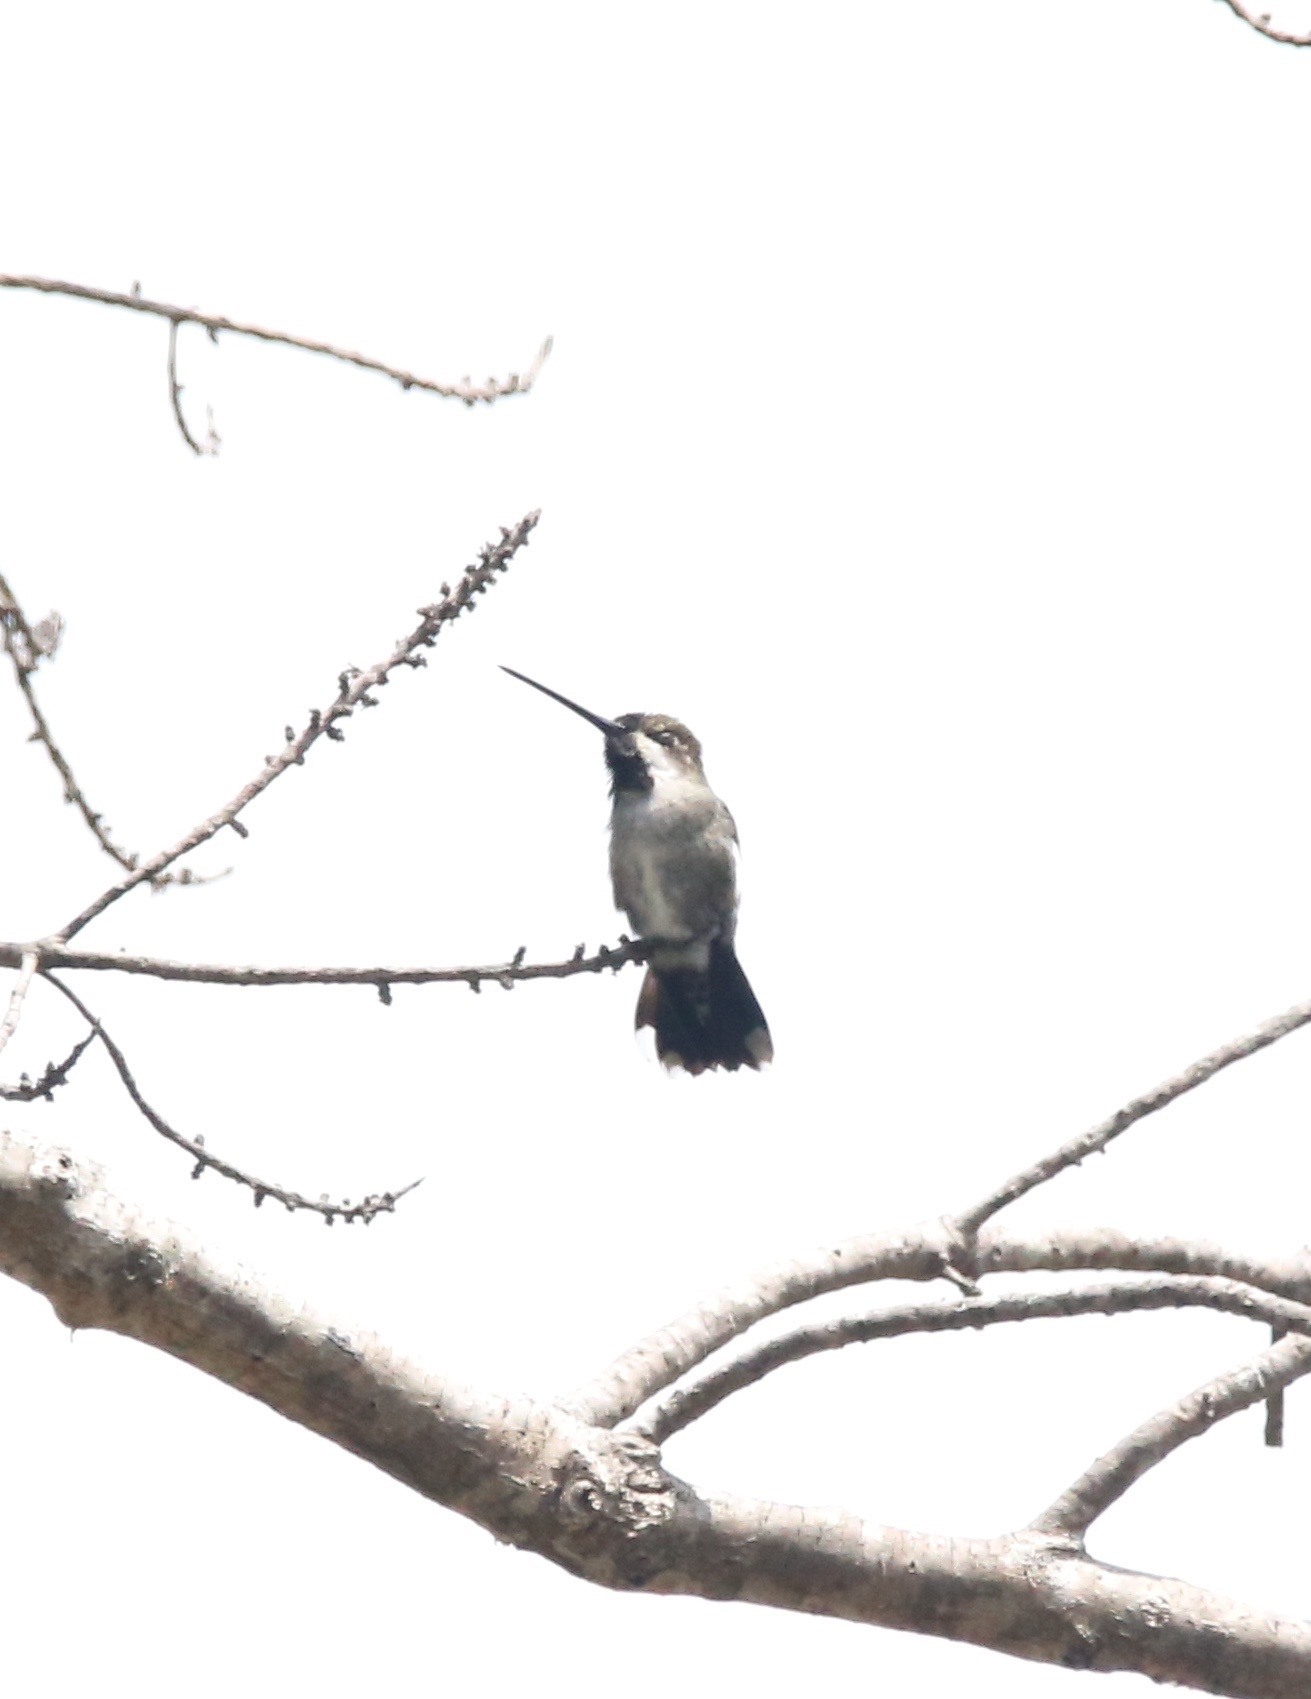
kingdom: Animalia
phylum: Chordata
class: Aves
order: Apodiformes
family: Trochilidae
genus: Heliomaster
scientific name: Heliomaster longirostris
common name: Long-billed starthroat
